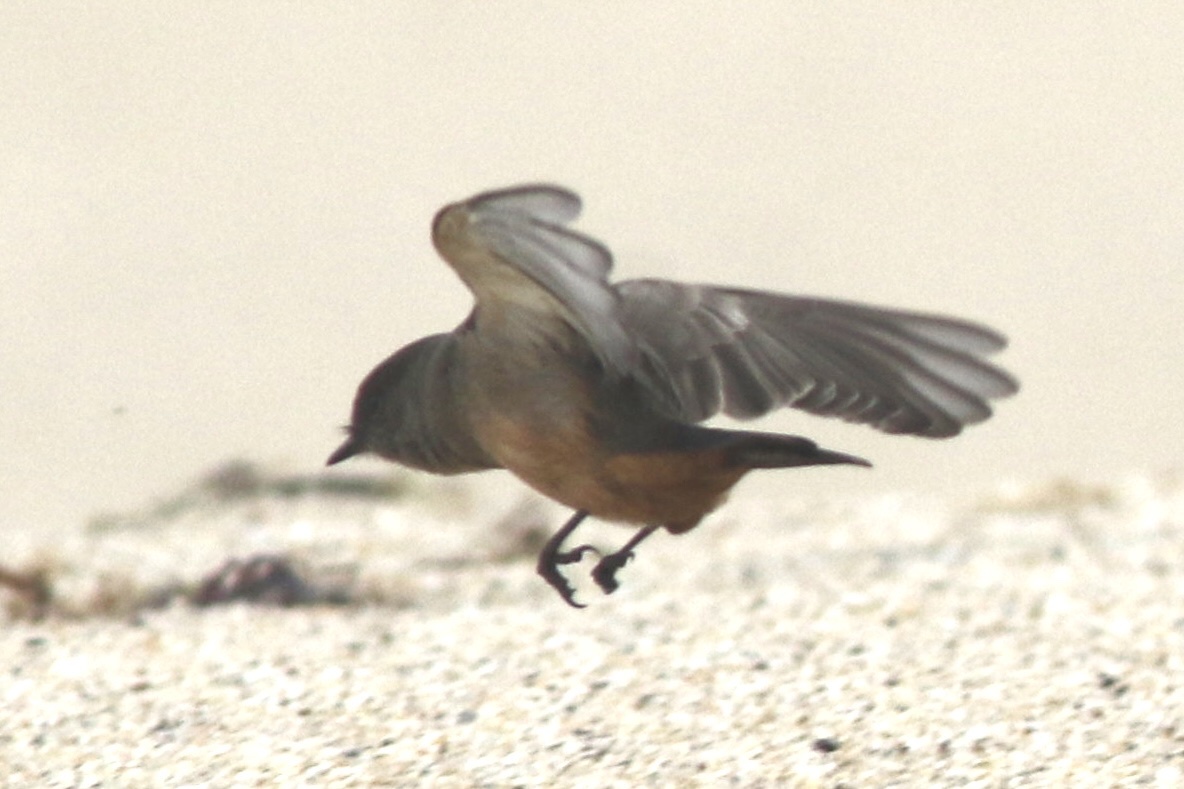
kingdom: Animalia
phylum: Chordata
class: Aves
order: Passeriformes
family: Tyrannidae
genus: Sayornis
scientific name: Sayornis saya
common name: Say's phoebe
